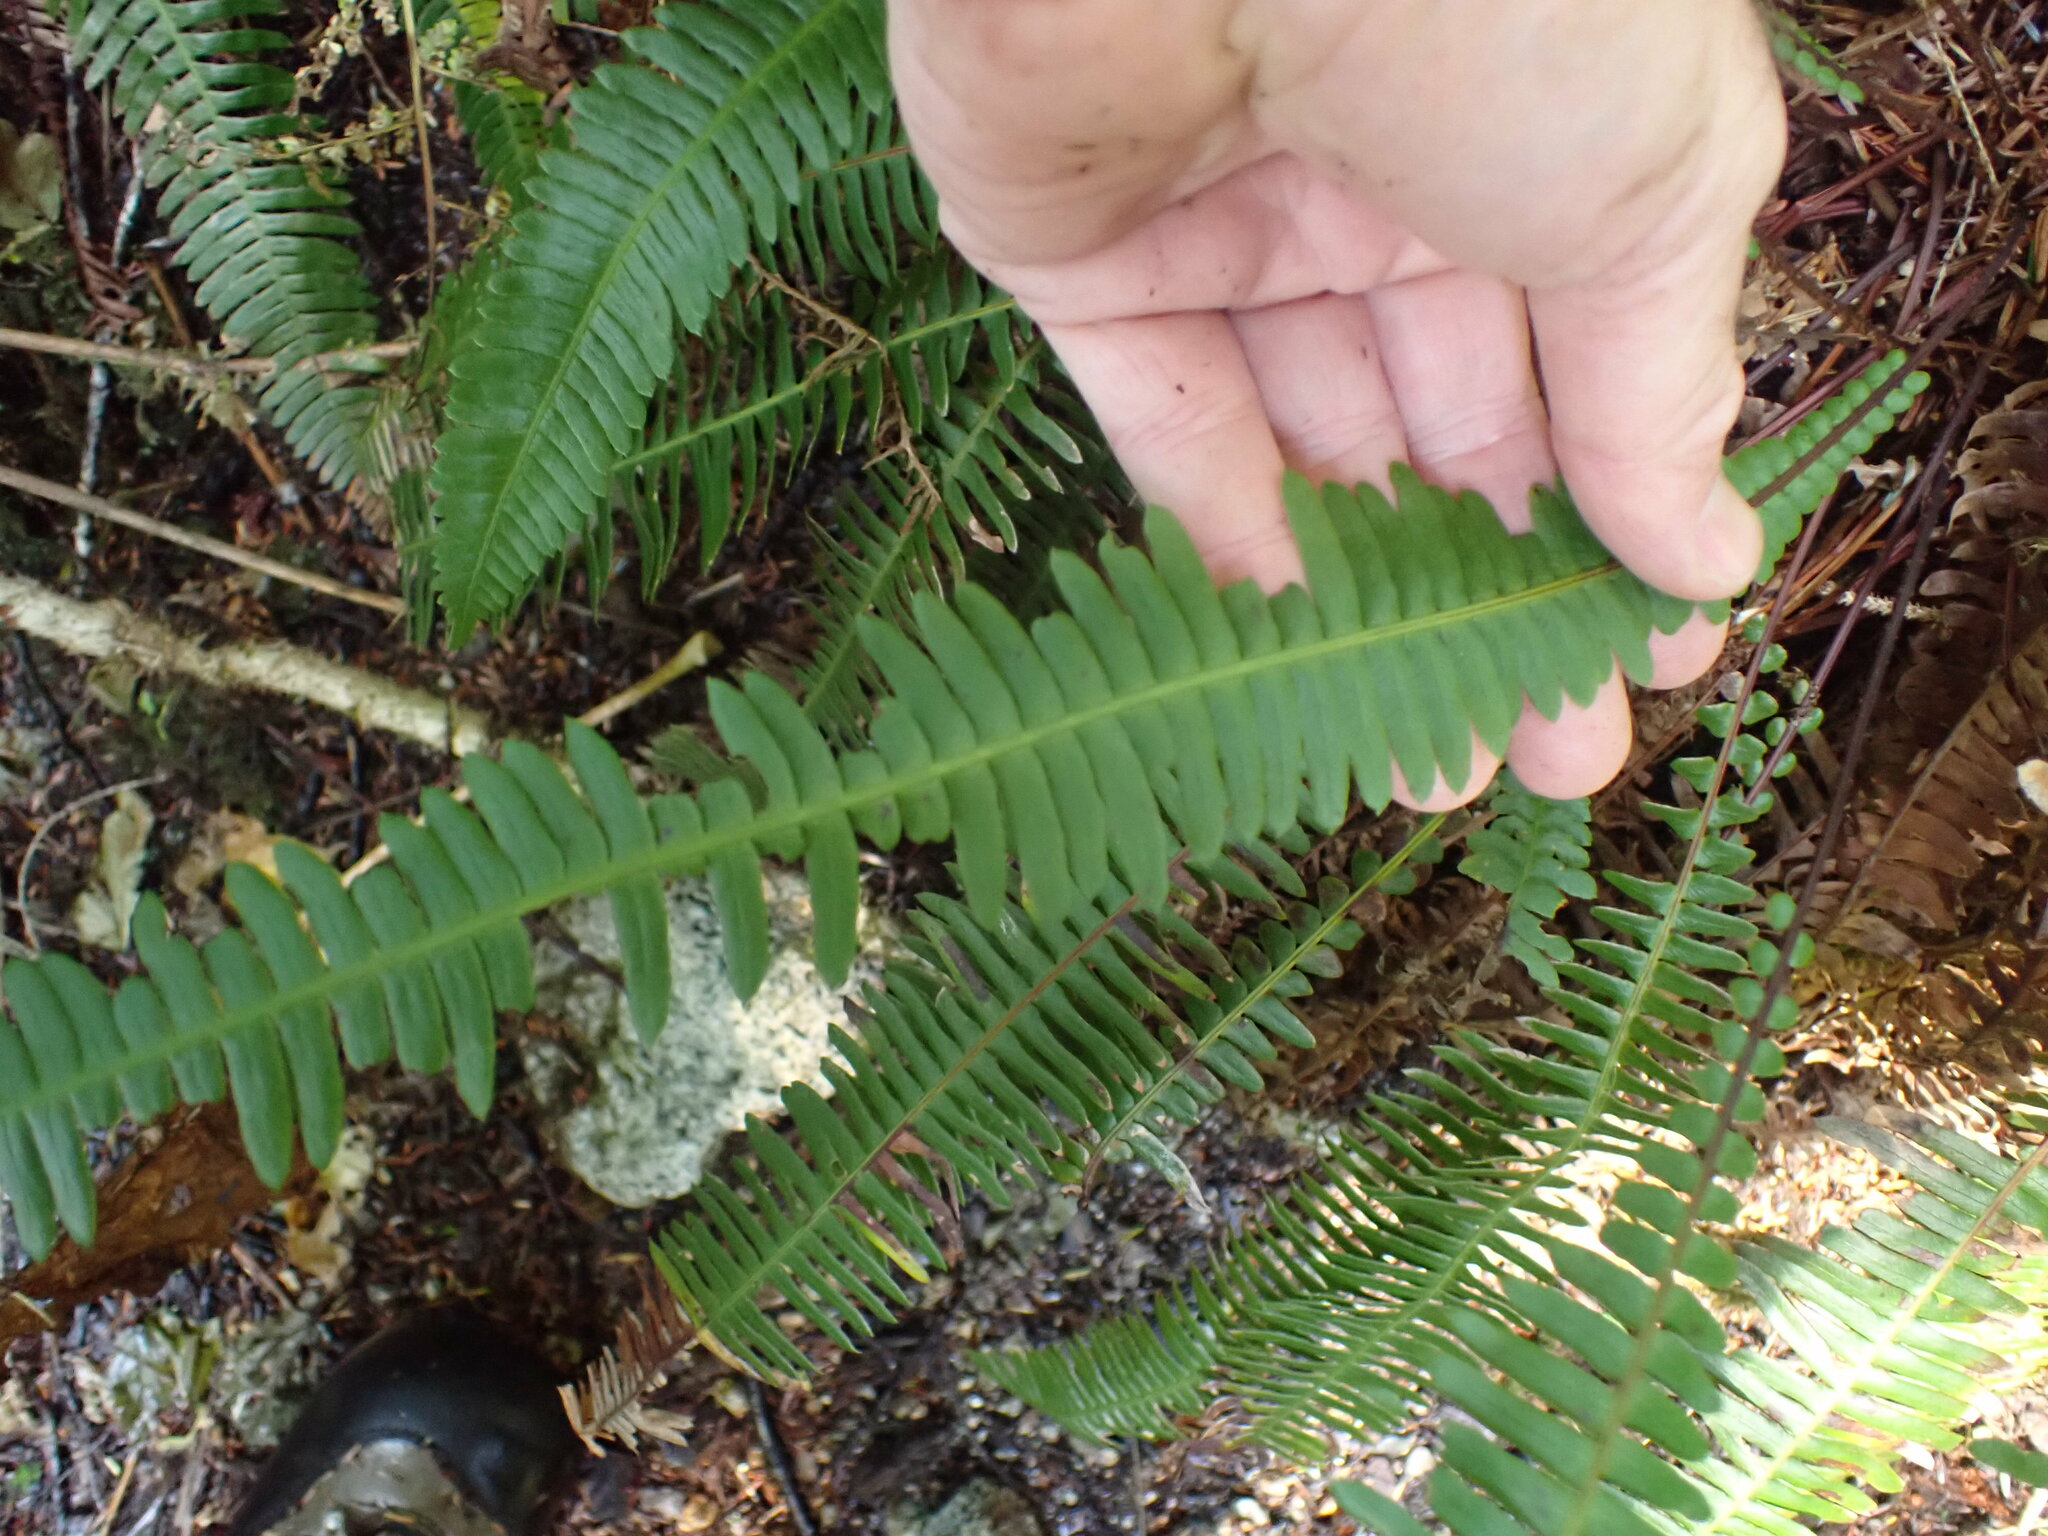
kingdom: Plantae
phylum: Tracheophyta
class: Polypodiopsida
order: Polypodiales
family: Blechnaceae
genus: Struthiopteris
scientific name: Struthiopteris spicant
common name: Deer fern
